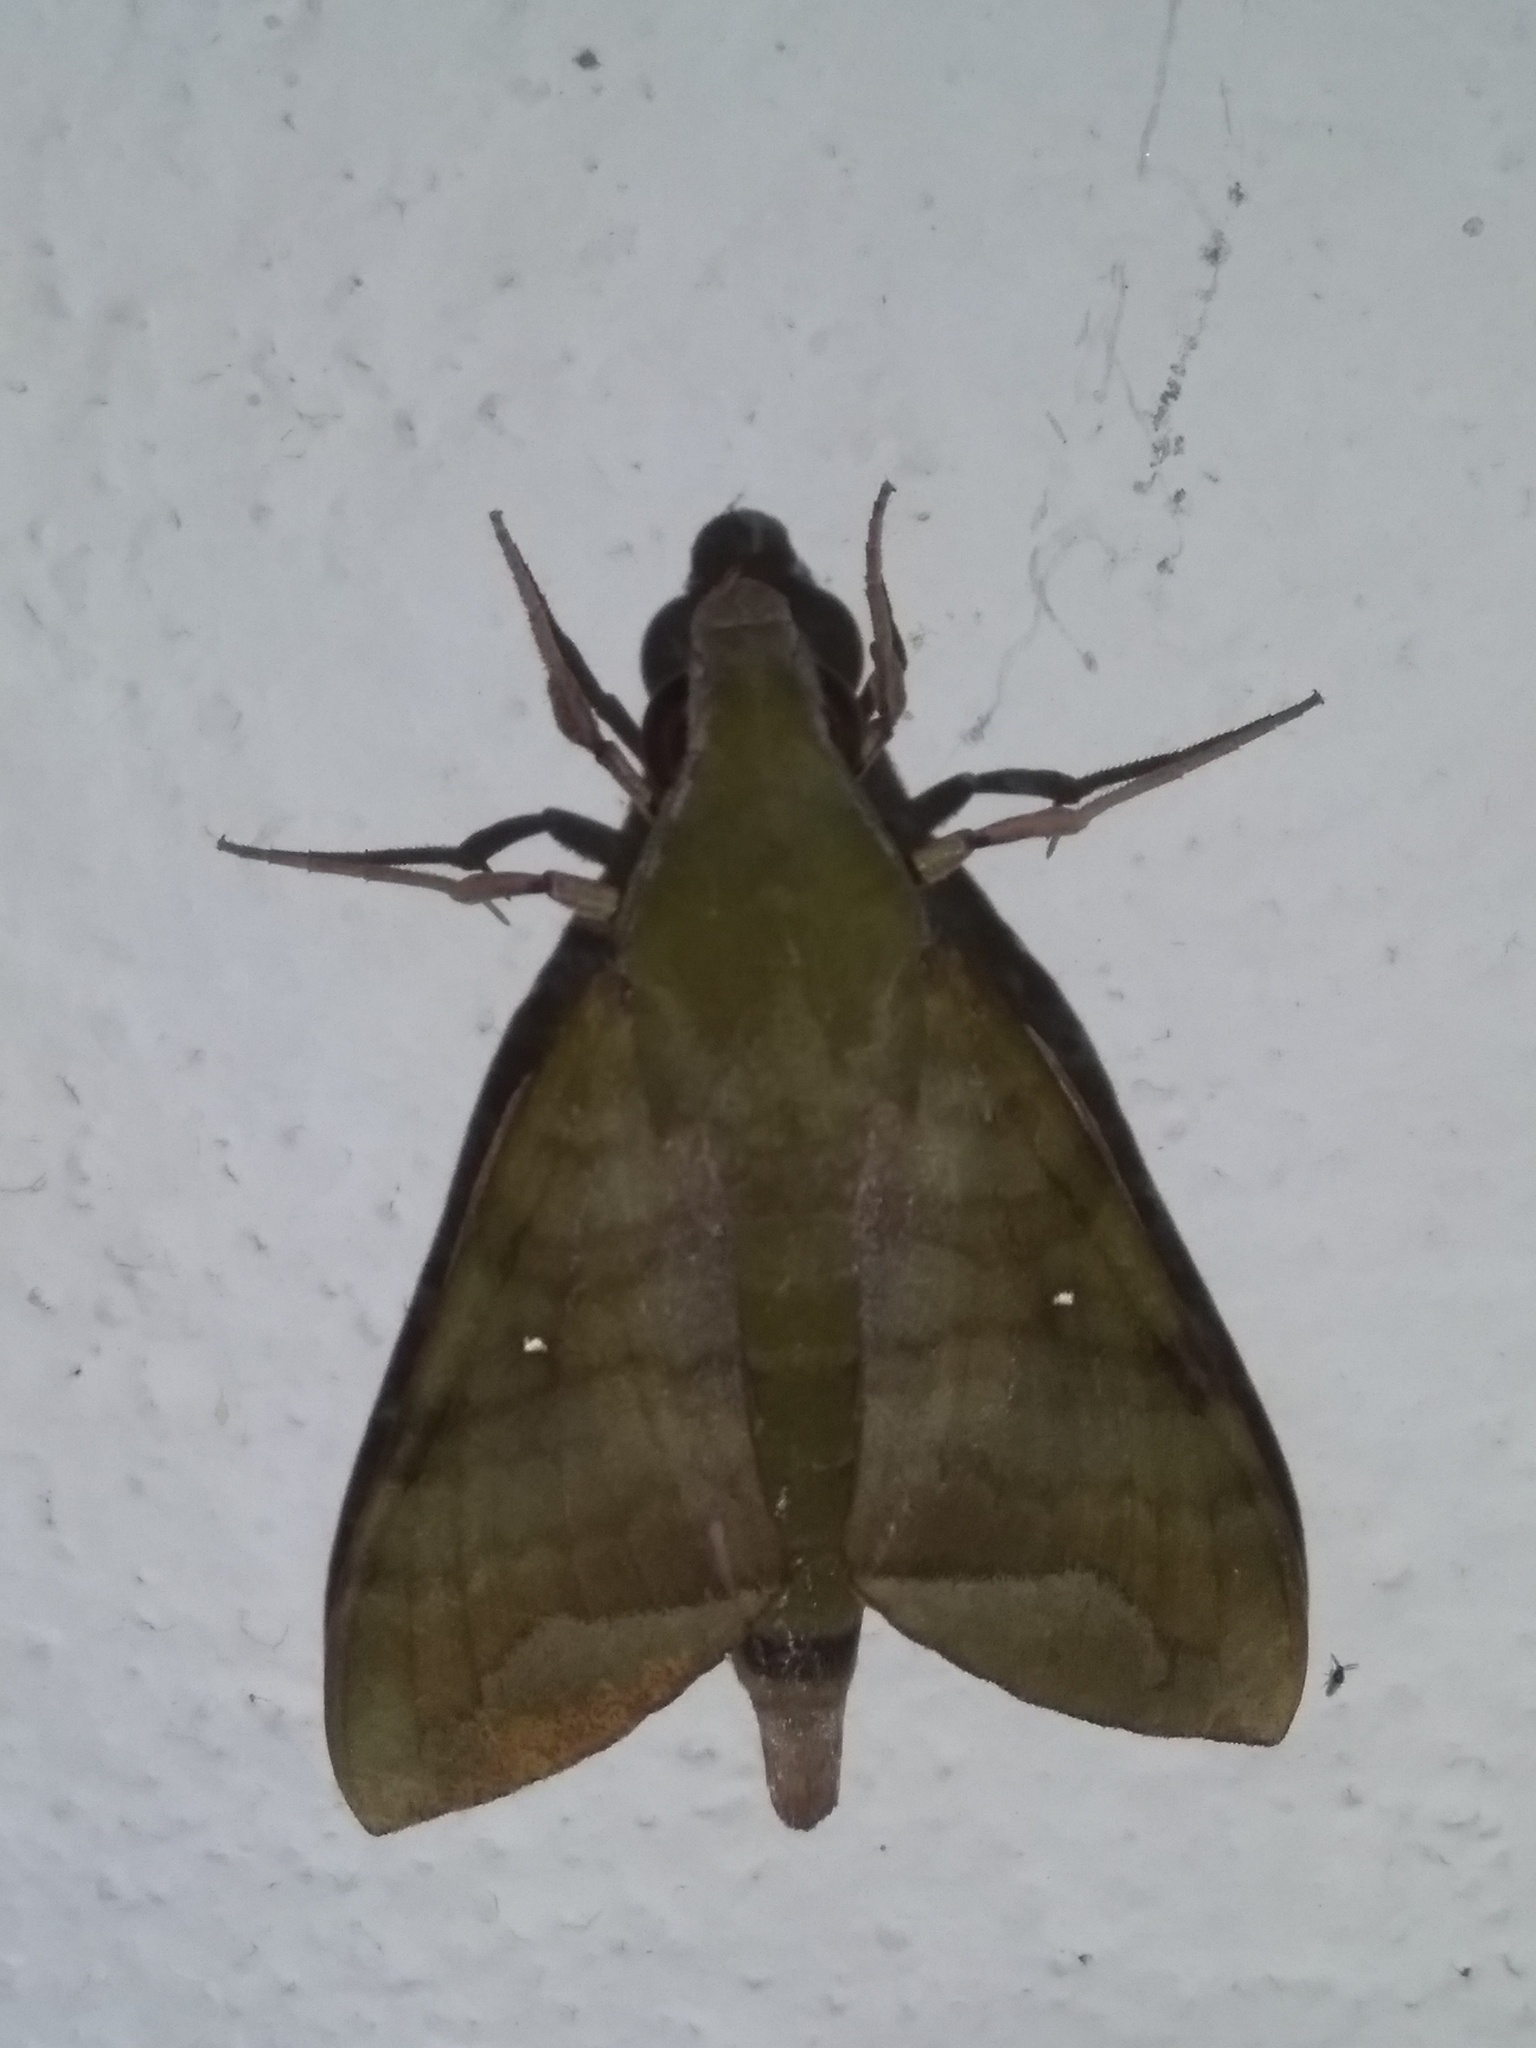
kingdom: Animalia
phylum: Arthropoda
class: Insecta
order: Lepidoptera
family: Sphingidae
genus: Nephele
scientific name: Nephele hespera
